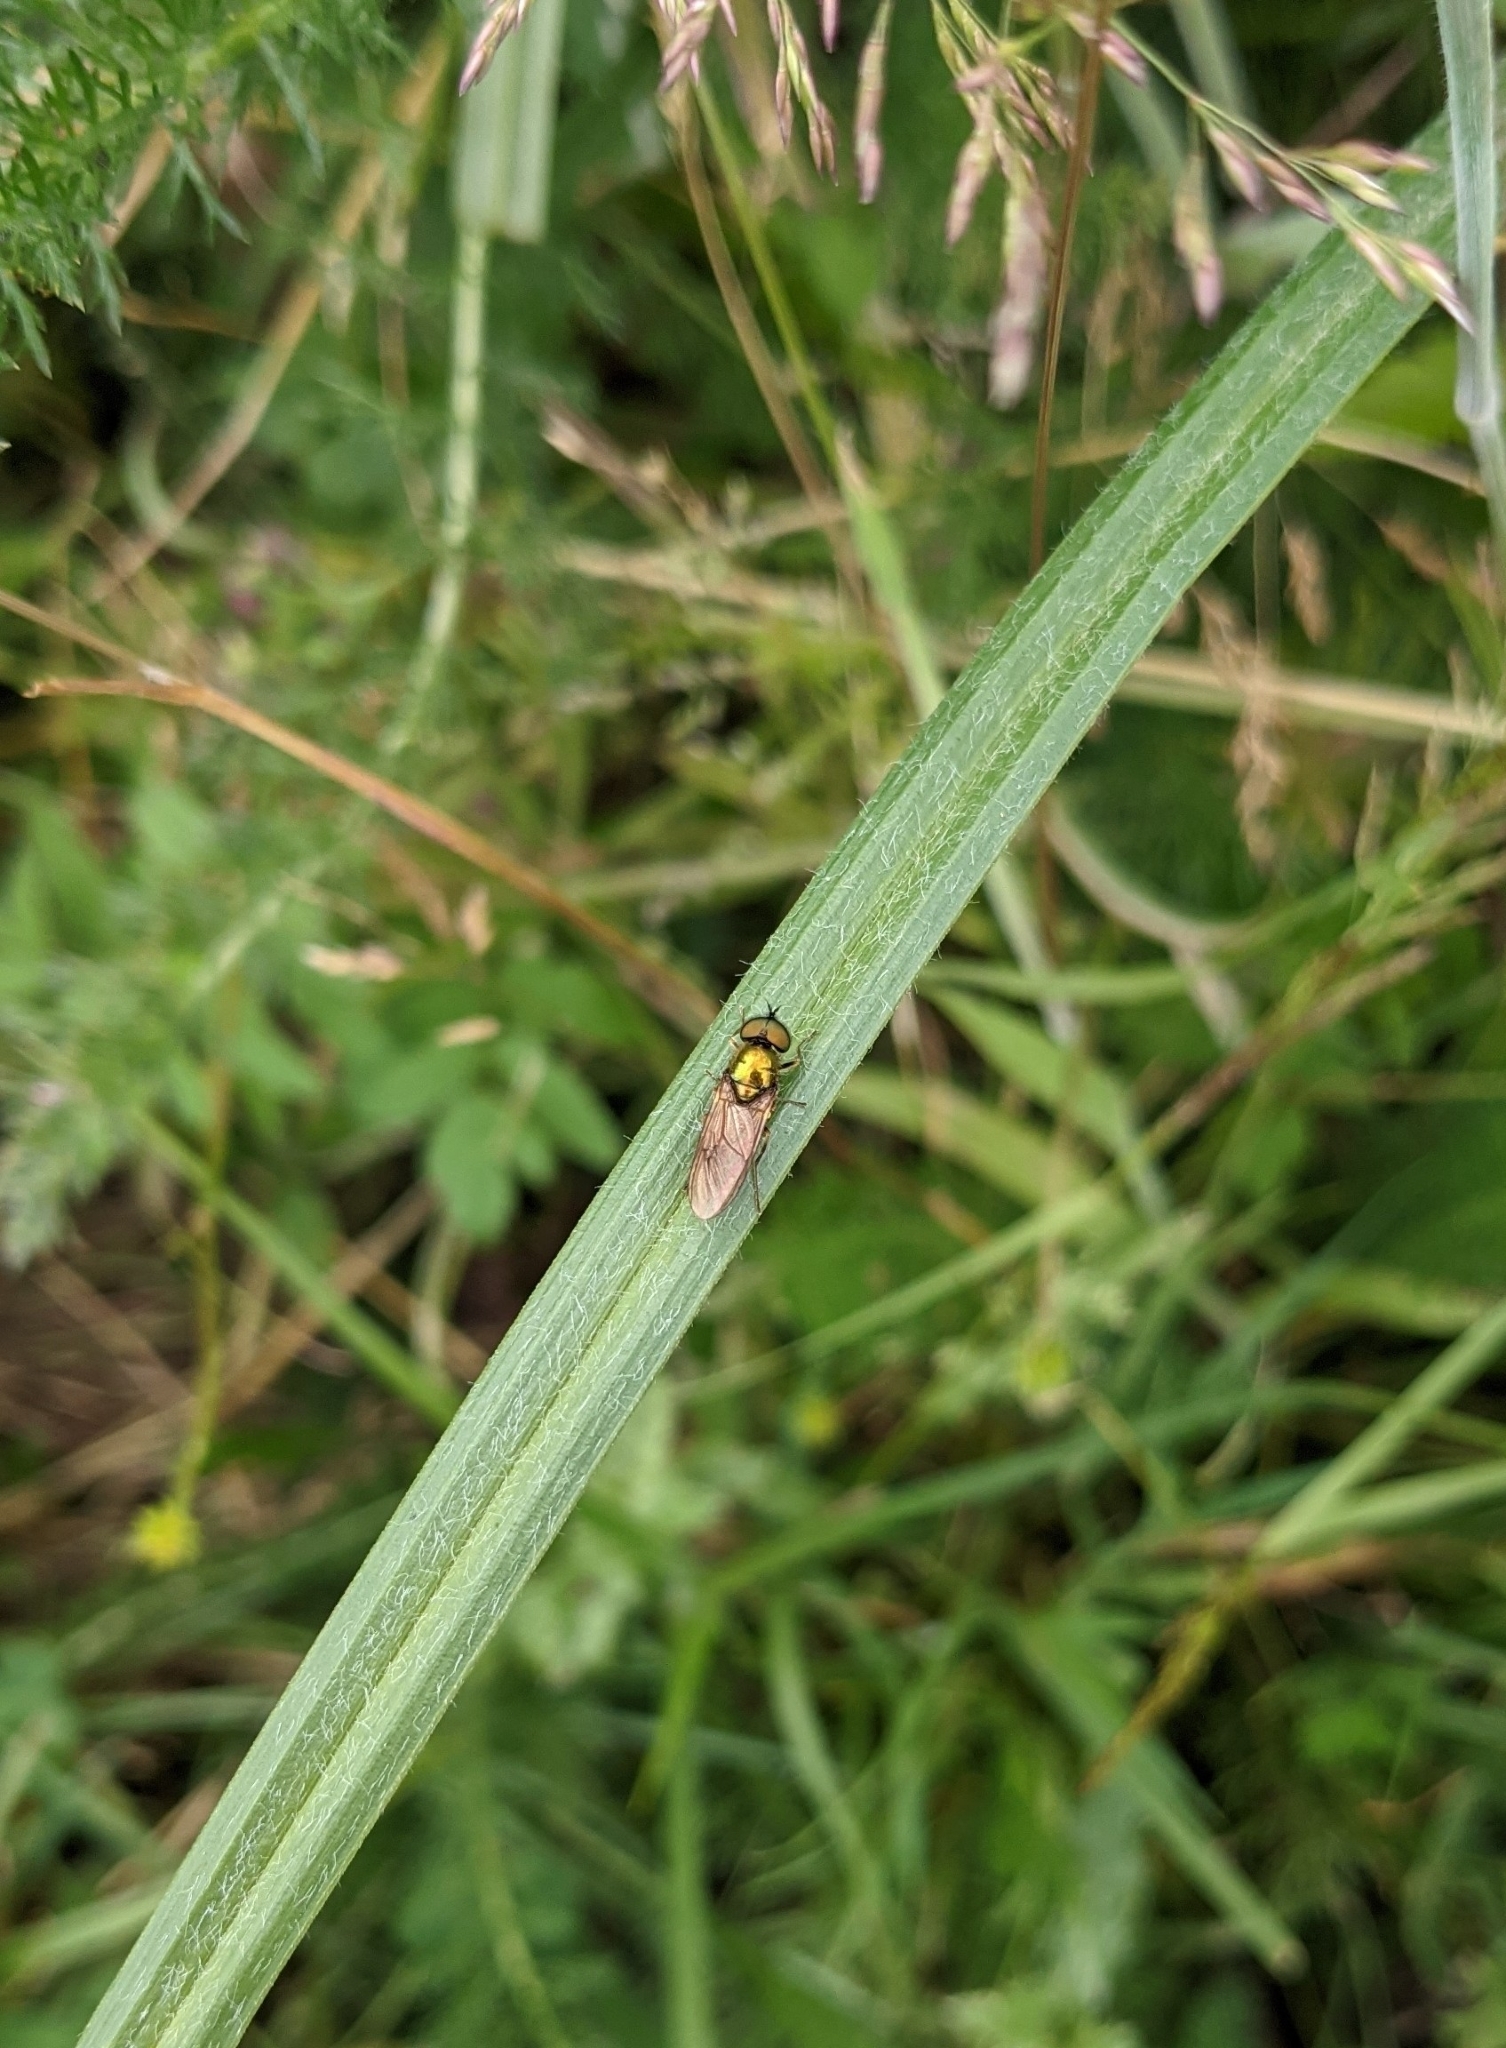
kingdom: Animalia
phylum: Arthropoda
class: Insecta
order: Diptera
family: Stratiomyidae
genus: Chloromyia
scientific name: Chloromyia formosa
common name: Soldier fly
